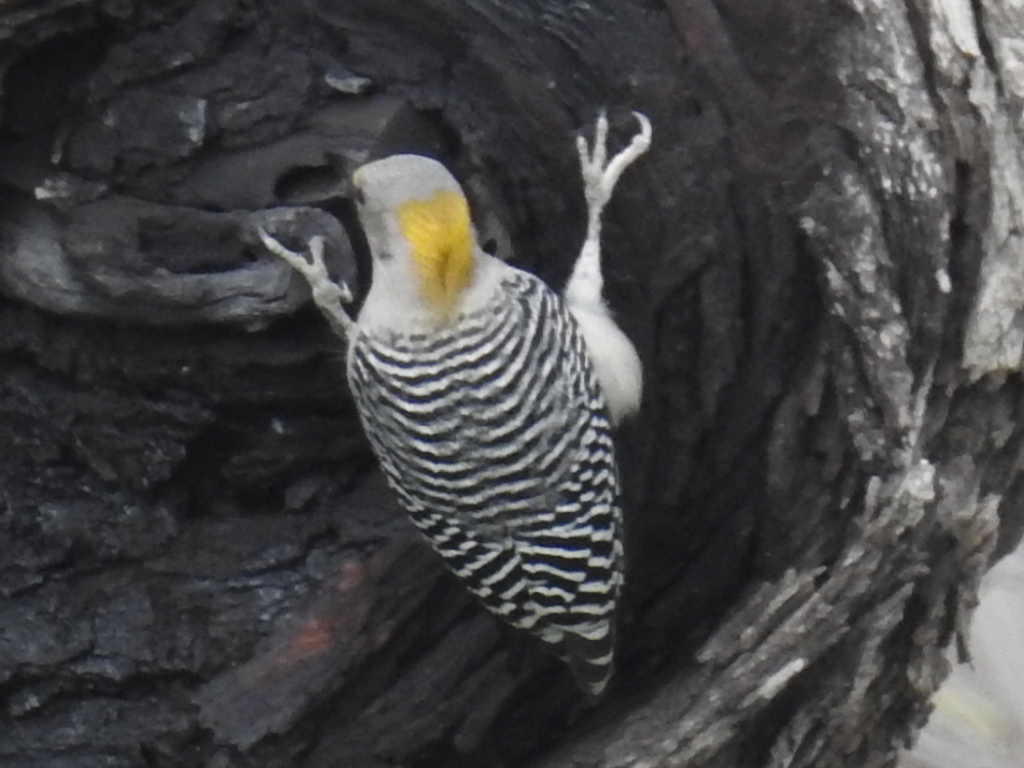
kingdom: Animalia
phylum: Chordata
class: Aves
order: Piciformes
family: Picidae
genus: Melanerpes
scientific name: Melanerpes aurifrons
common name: Golden-fronted woodpecker
